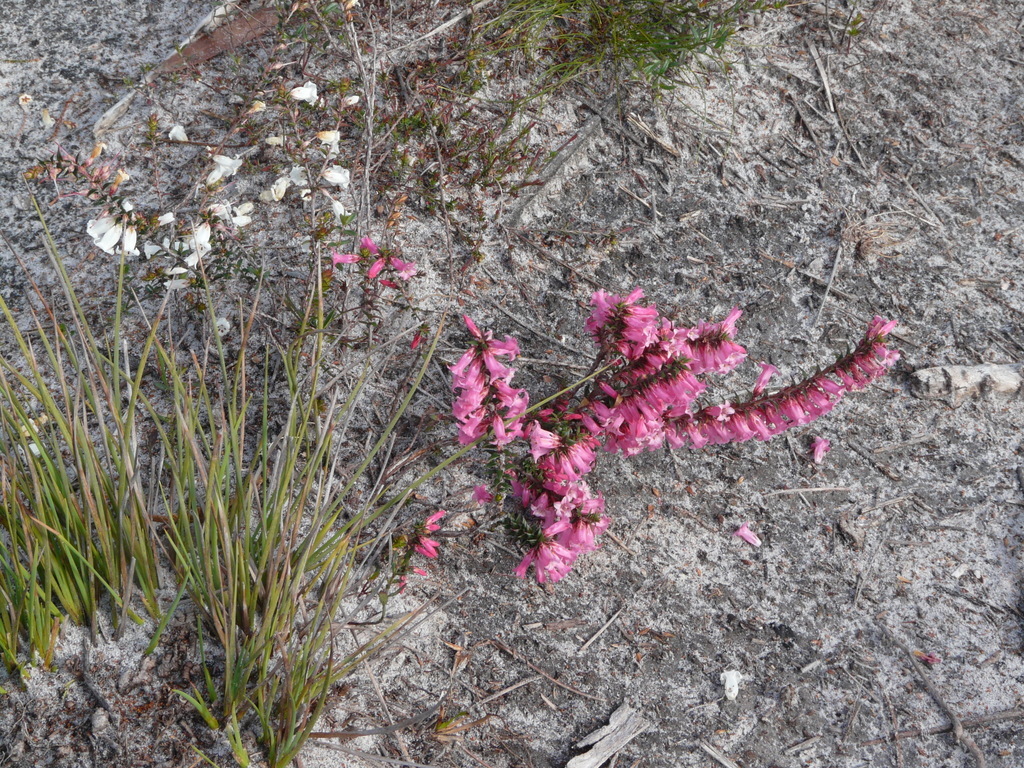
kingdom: Plantae
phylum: Tracheophyta
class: Magnoliopsida
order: Ericales
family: Ericaceae
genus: Epacris
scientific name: Epacris impressa
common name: Common-heath
